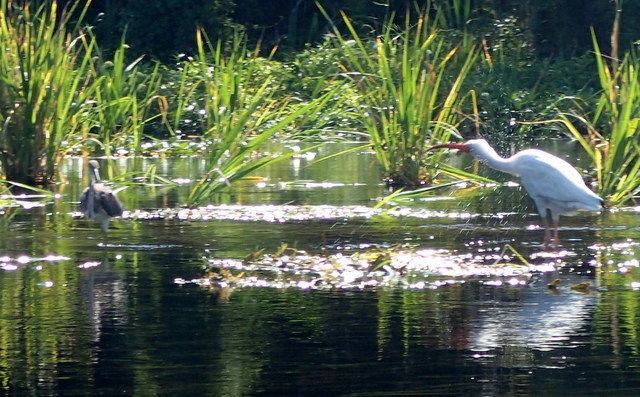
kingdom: Animalia
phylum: Chordata
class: Aves
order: Pelecaniformes
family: Ardeidae
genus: Egretta
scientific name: Egretta tricolor
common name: Tricolored heron
